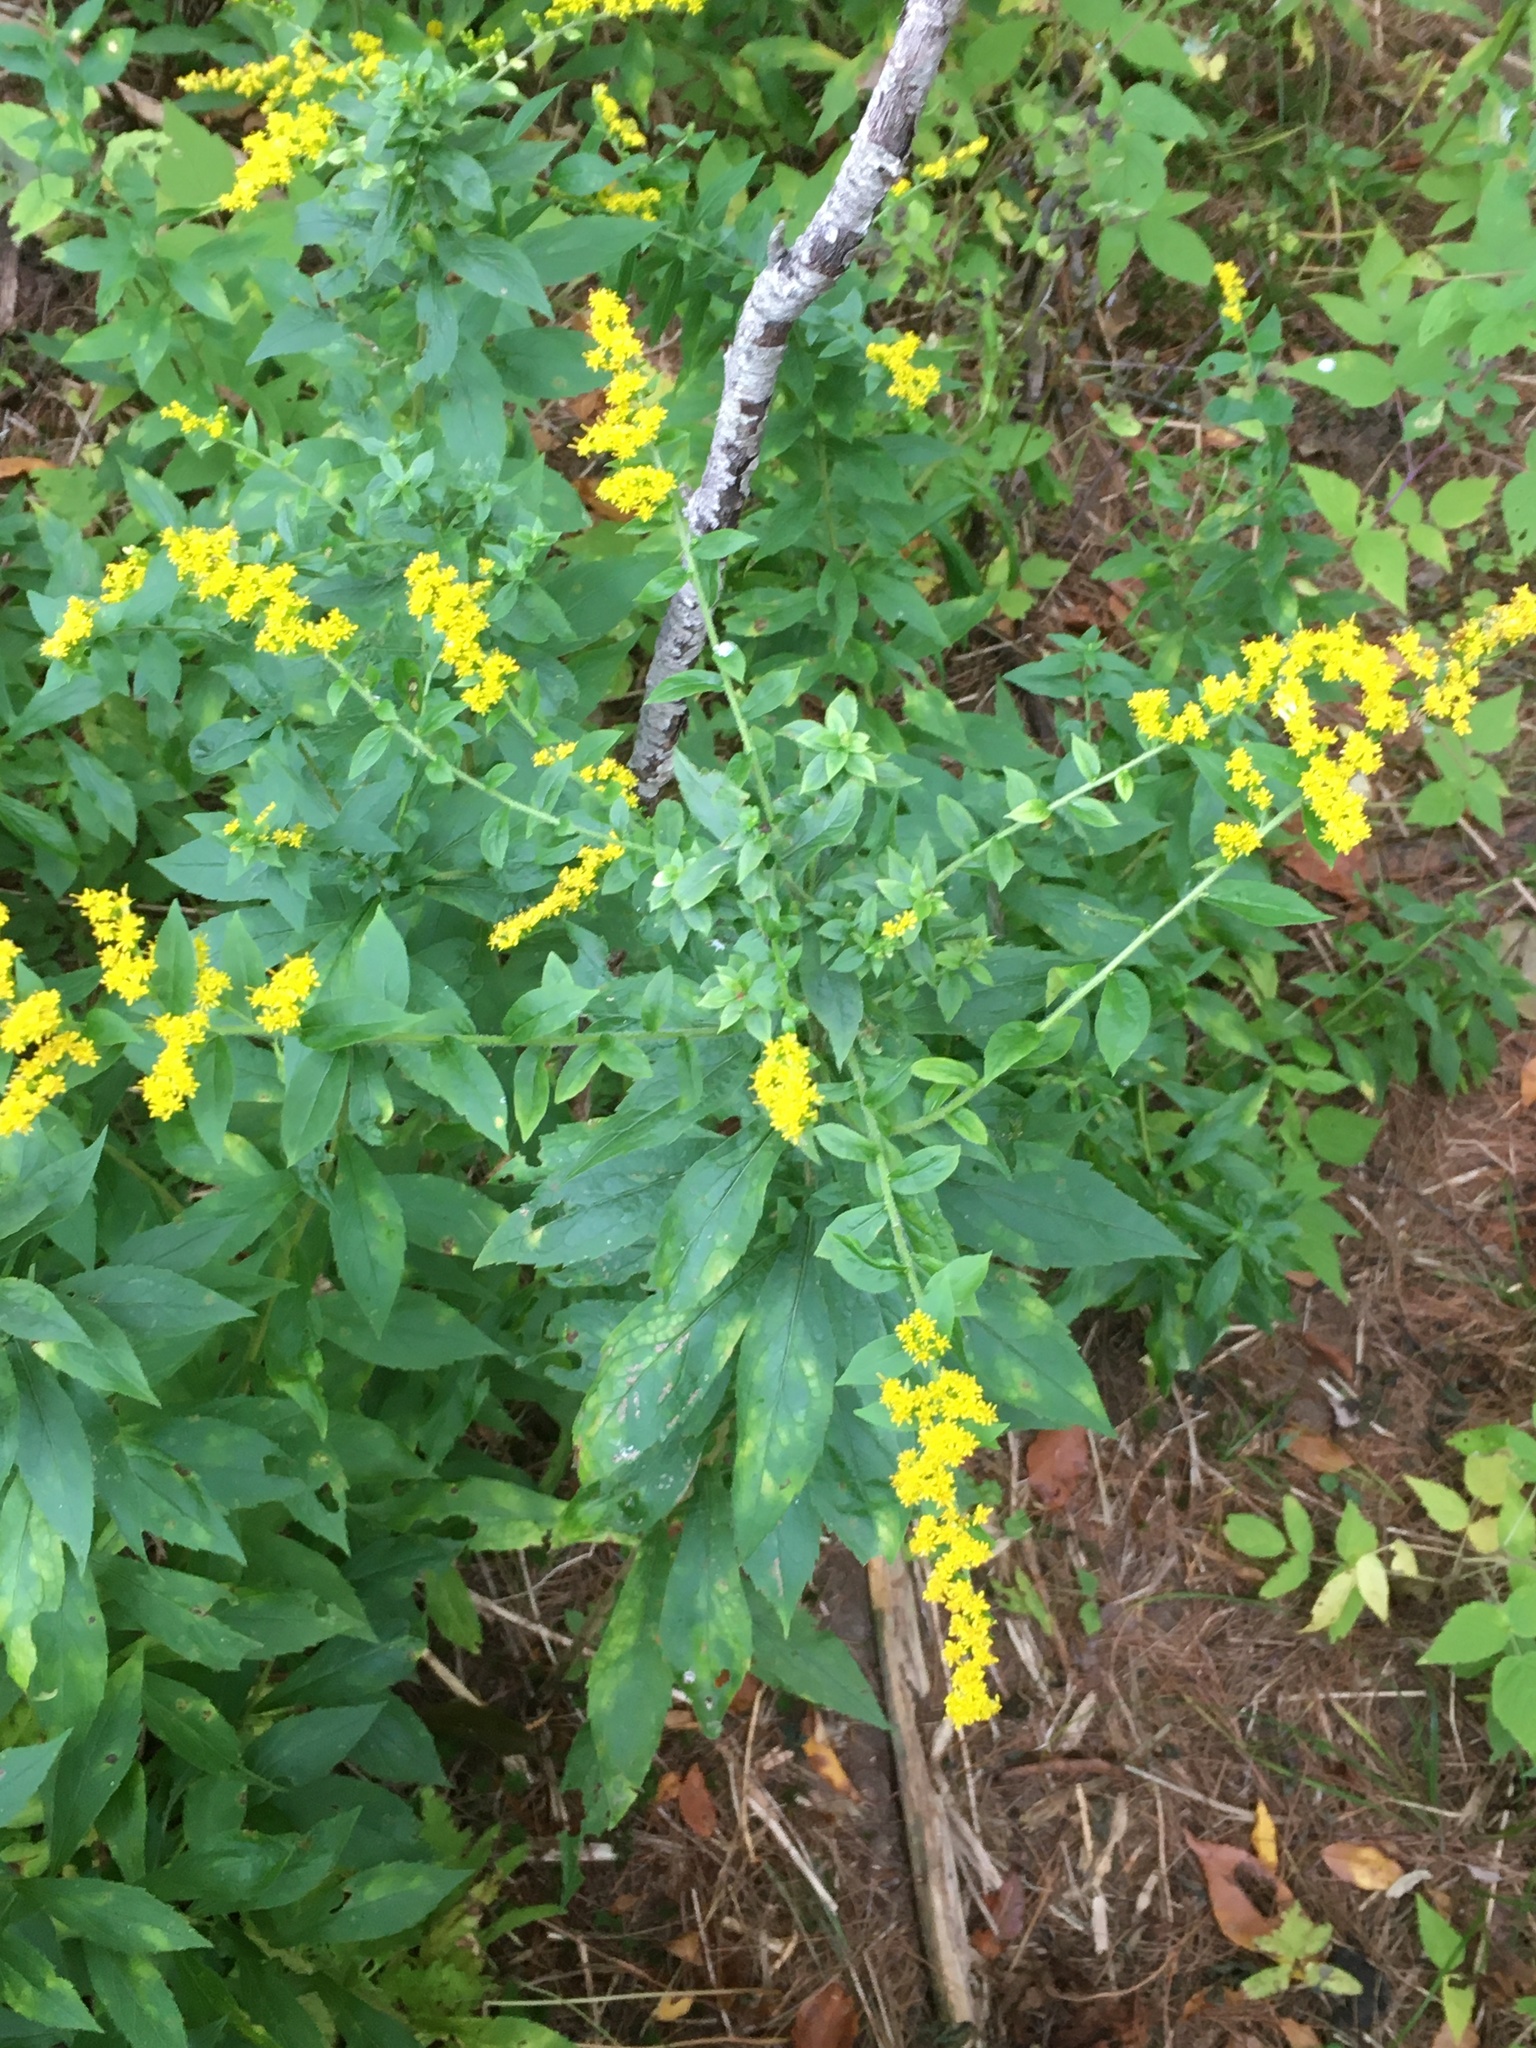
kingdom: Plantae
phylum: Tracheophyta
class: Magnoliopsida
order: Asterales
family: Asteraceae
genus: Solidago
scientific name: Solidago rugosa
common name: Rough-stemmed goldenrod
